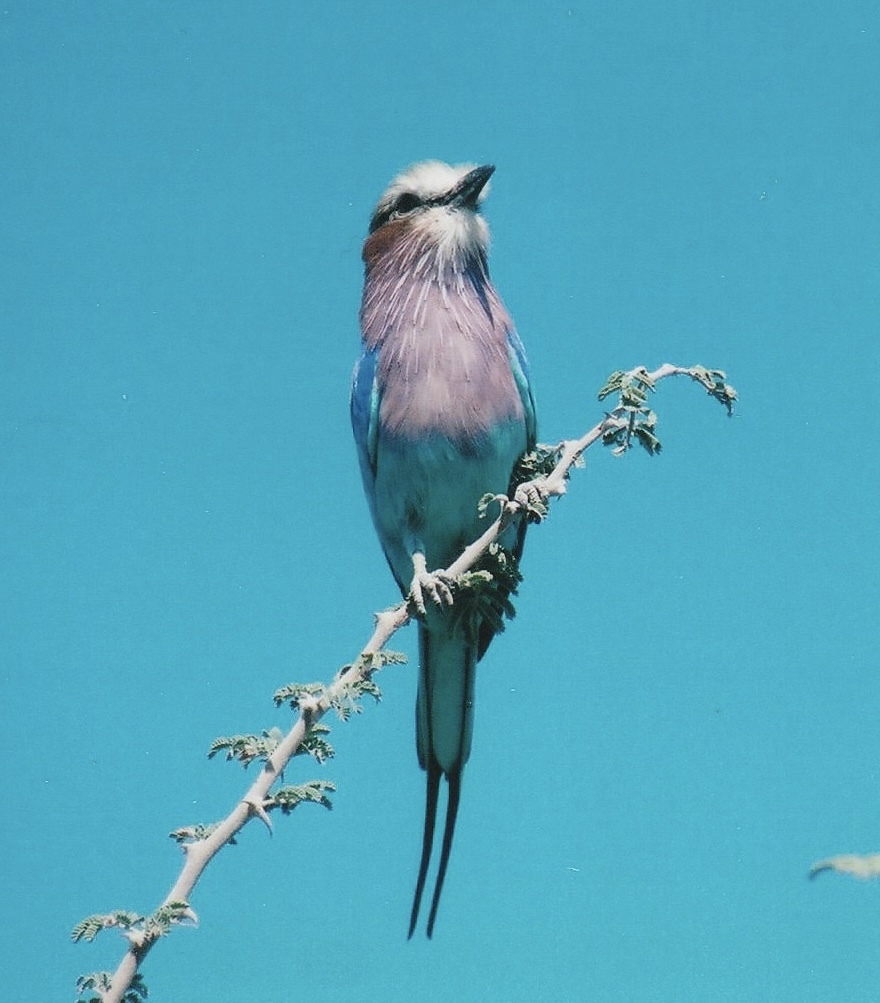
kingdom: Animalia
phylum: Chordata
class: Aves
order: Coraciiformes
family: Coraciidae
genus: Coracias
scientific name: Coracias caudatus
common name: Lilac-breasted roller
